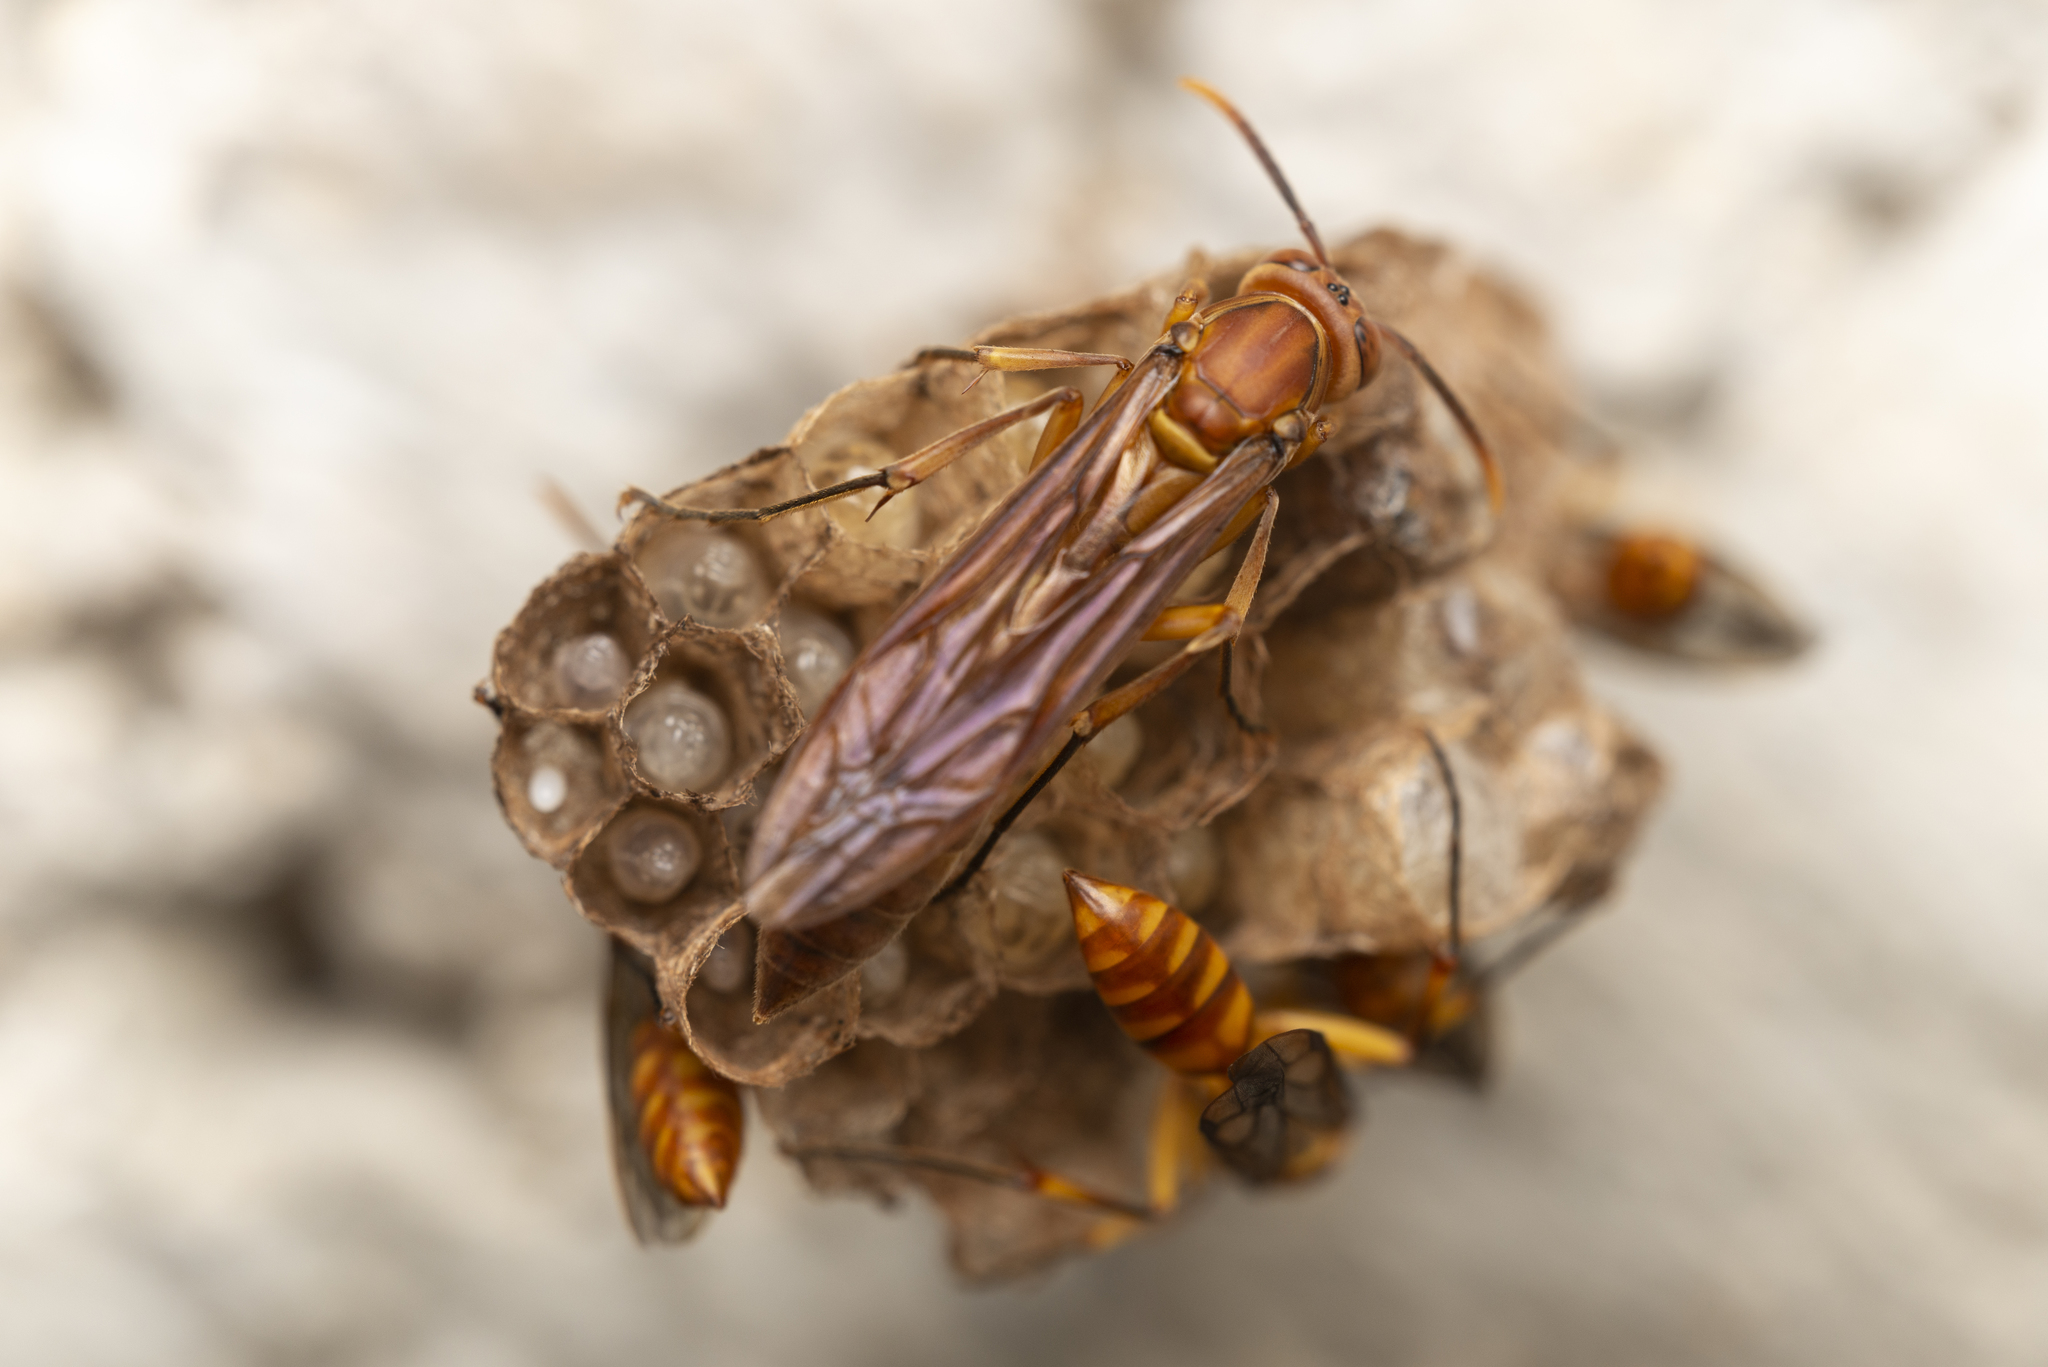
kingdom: Animalia
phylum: Arthropoda
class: Insecta
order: Hymenoptera
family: Vespidae
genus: Parapolybia
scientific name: Parapolybia indica
